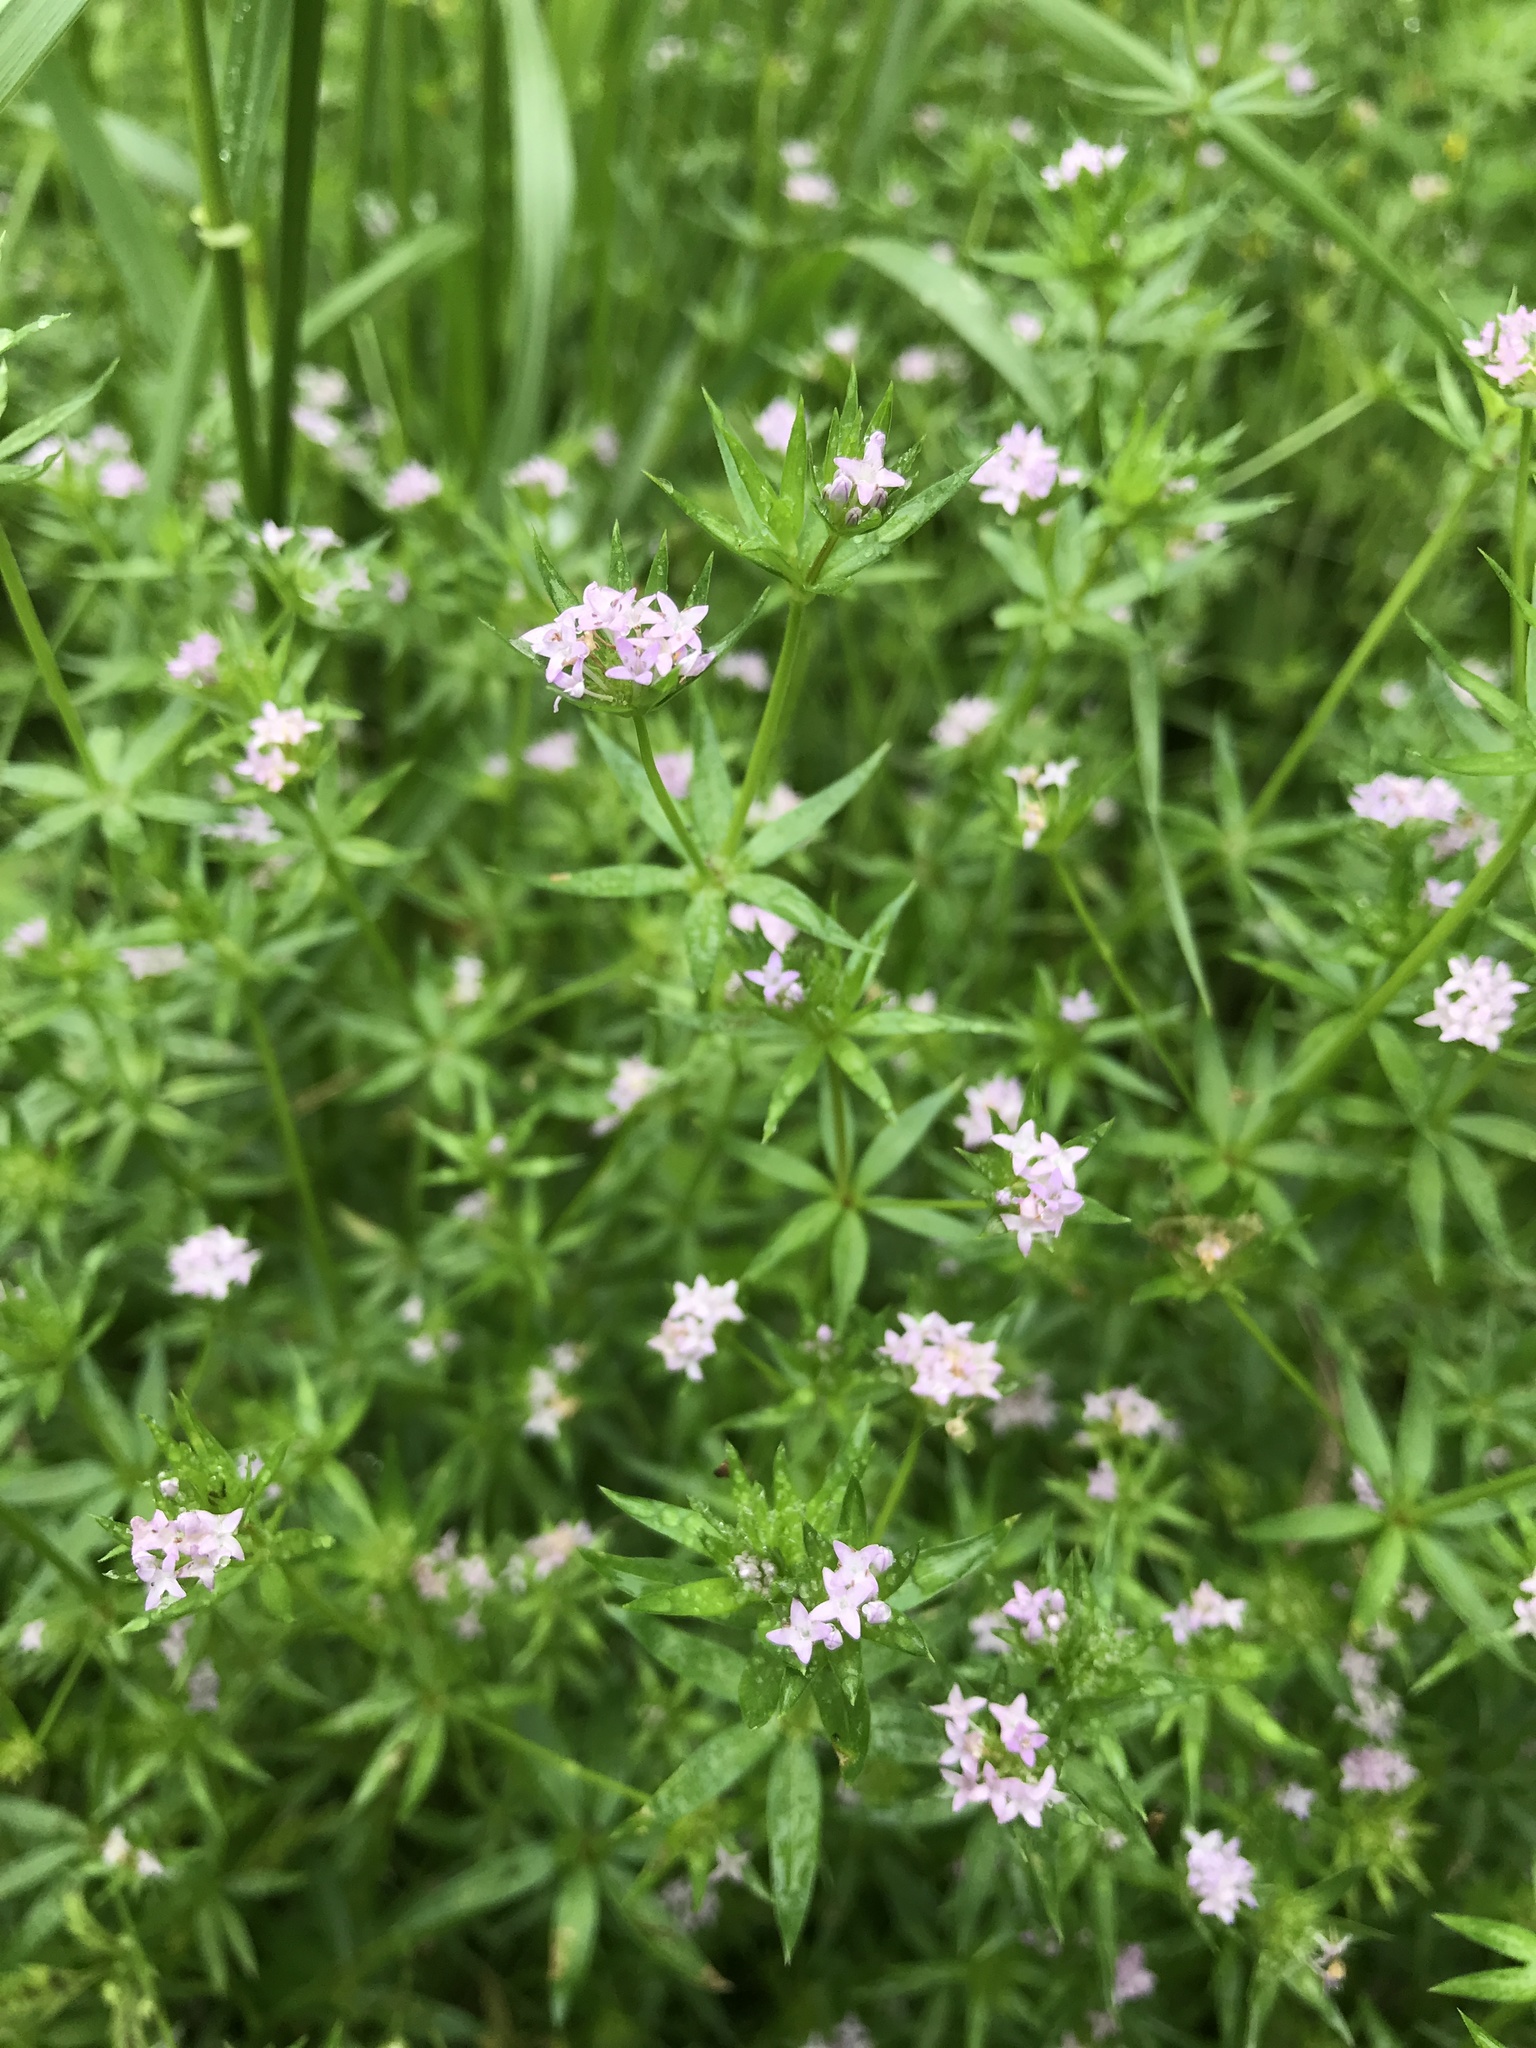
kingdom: Plantae
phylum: Tracheophyta
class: Magnoliopsida
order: Gentianales
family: Rubiaceae
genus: Sherardia
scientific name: Sherardia arvensis
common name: Field madder
